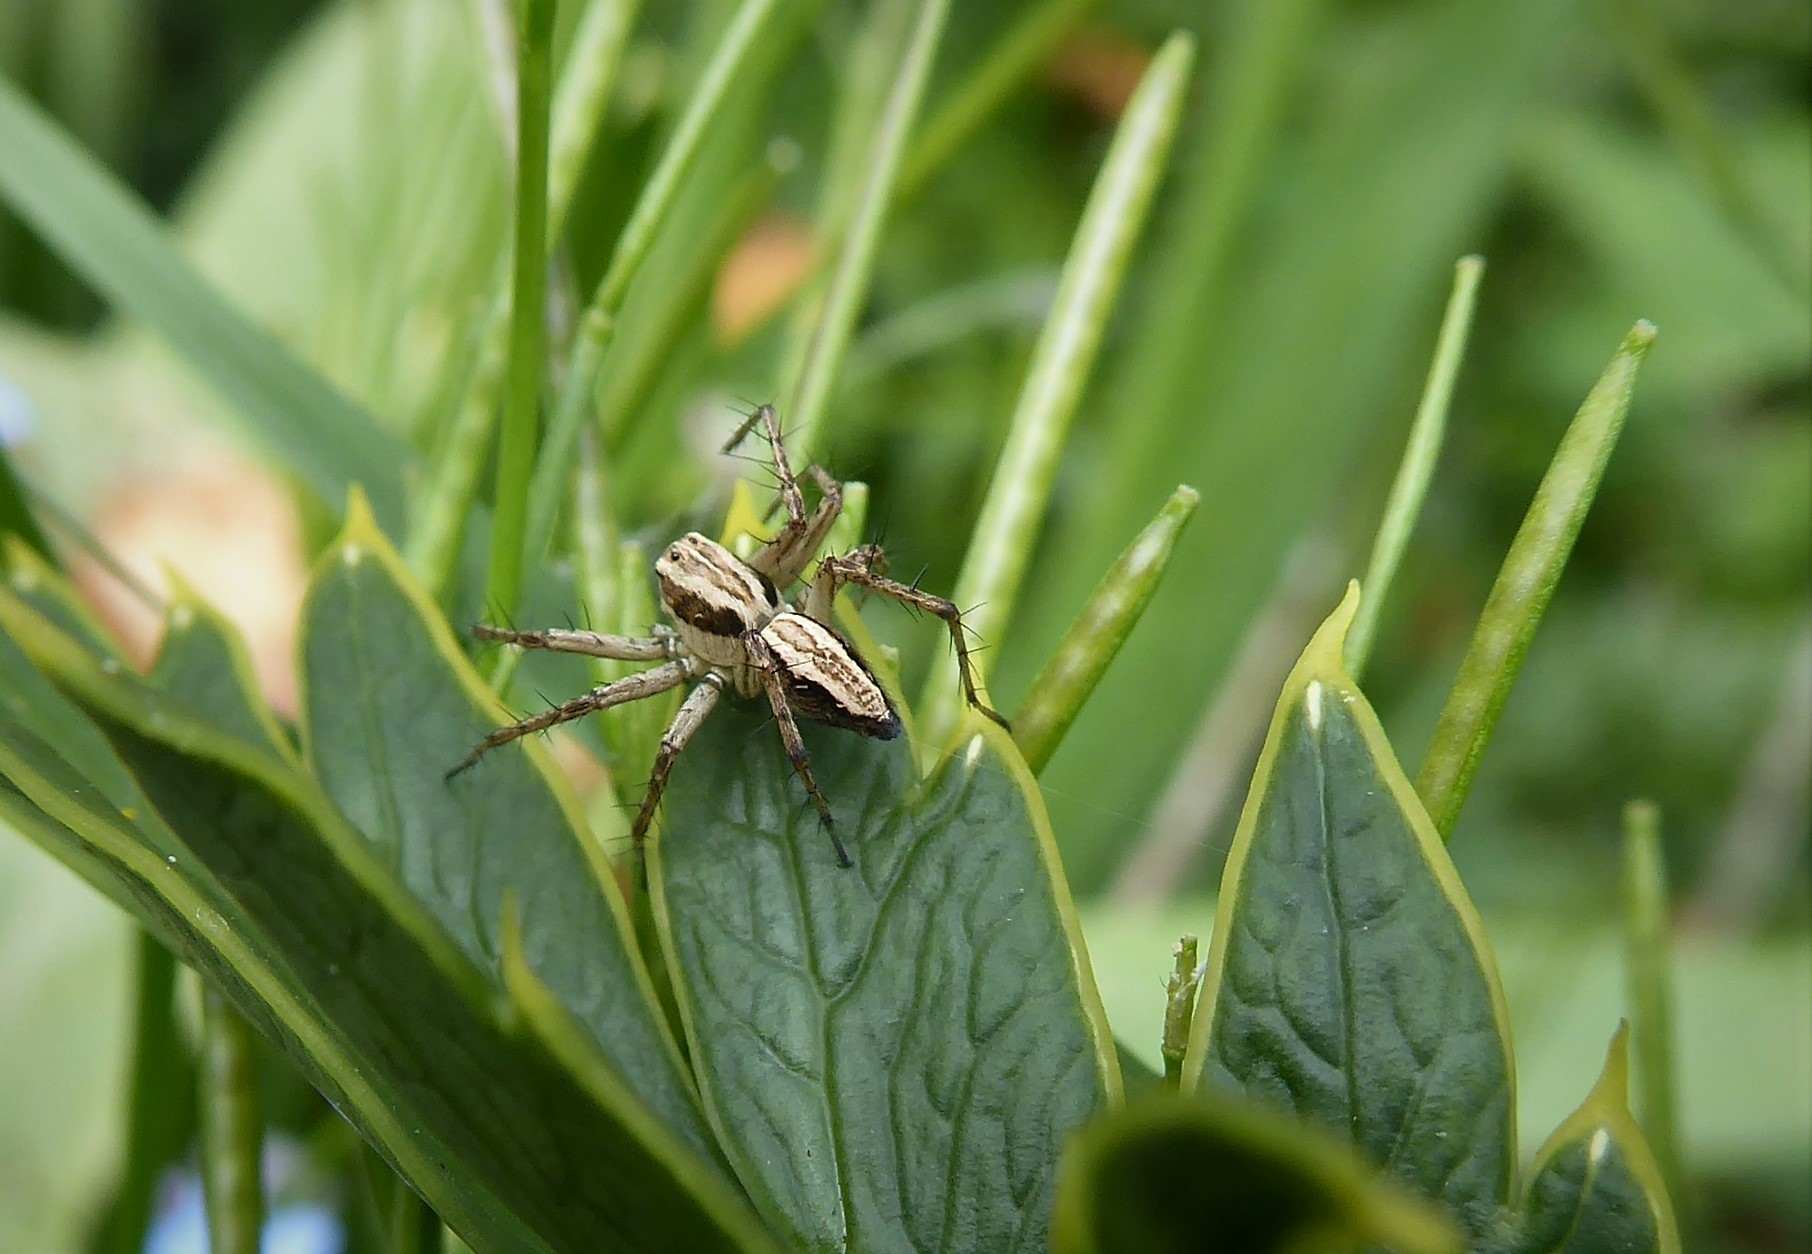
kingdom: Animalia
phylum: Arthropoda
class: Arachnida
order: Araneae
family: Oxyopidae
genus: Oxyopes
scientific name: Oxyopes gracilipes
